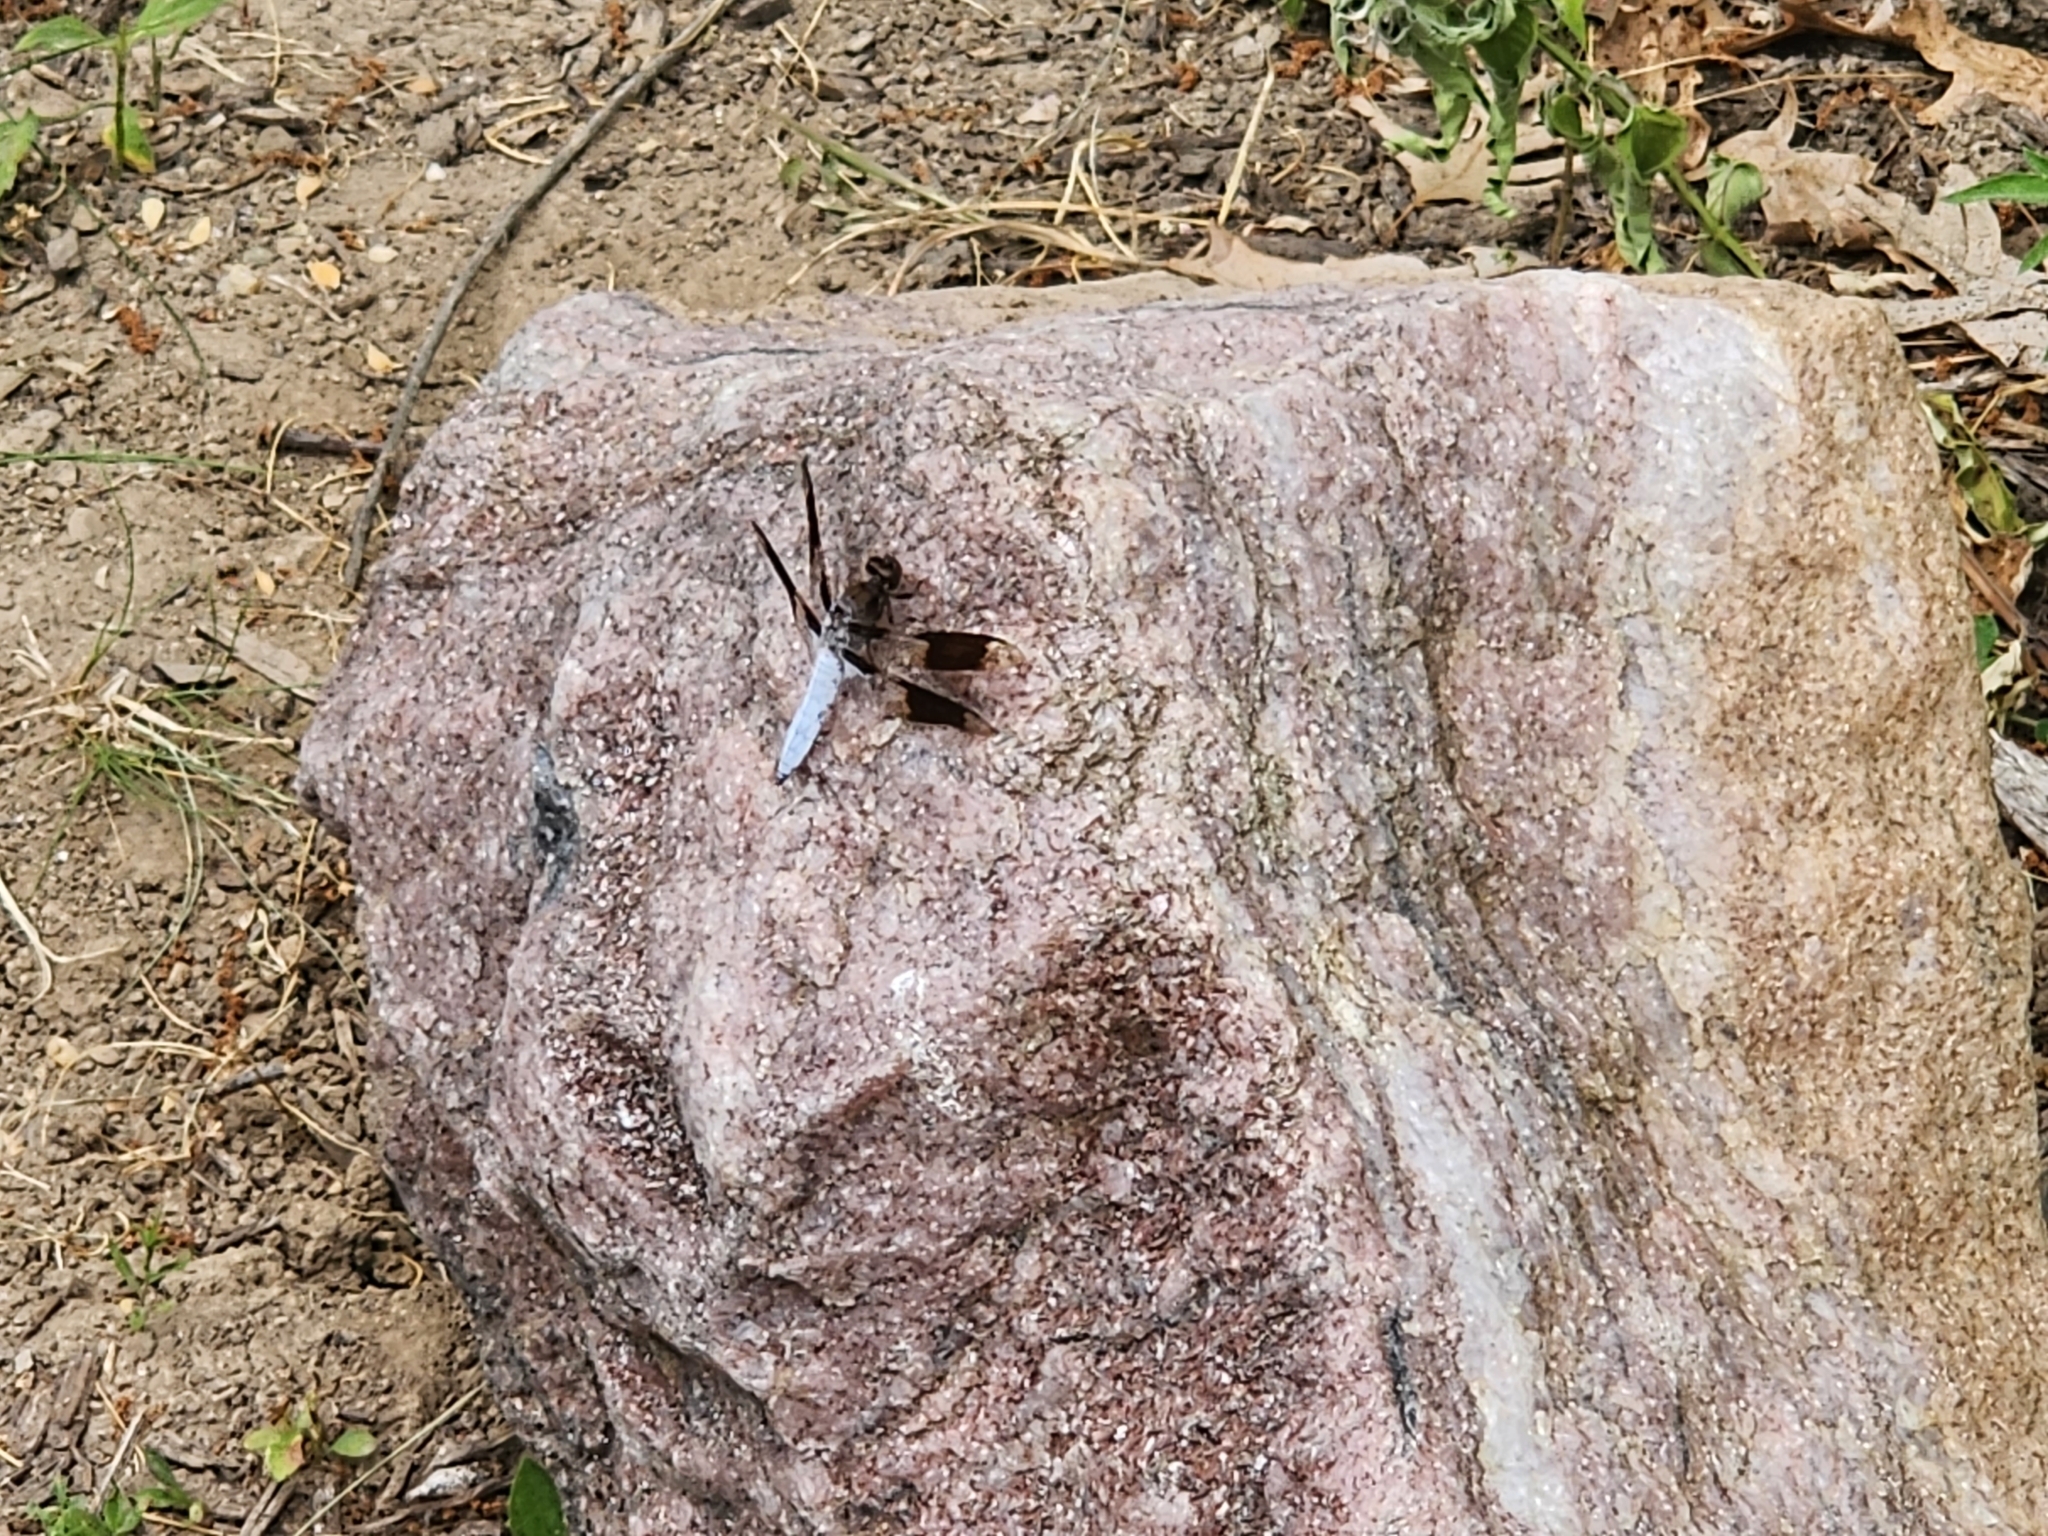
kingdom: Animalia
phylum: Arthropoda
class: Insecta
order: Odonata
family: Libellulidae
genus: Plathemis
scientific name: Plathemis lydia
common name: Common whitetail
